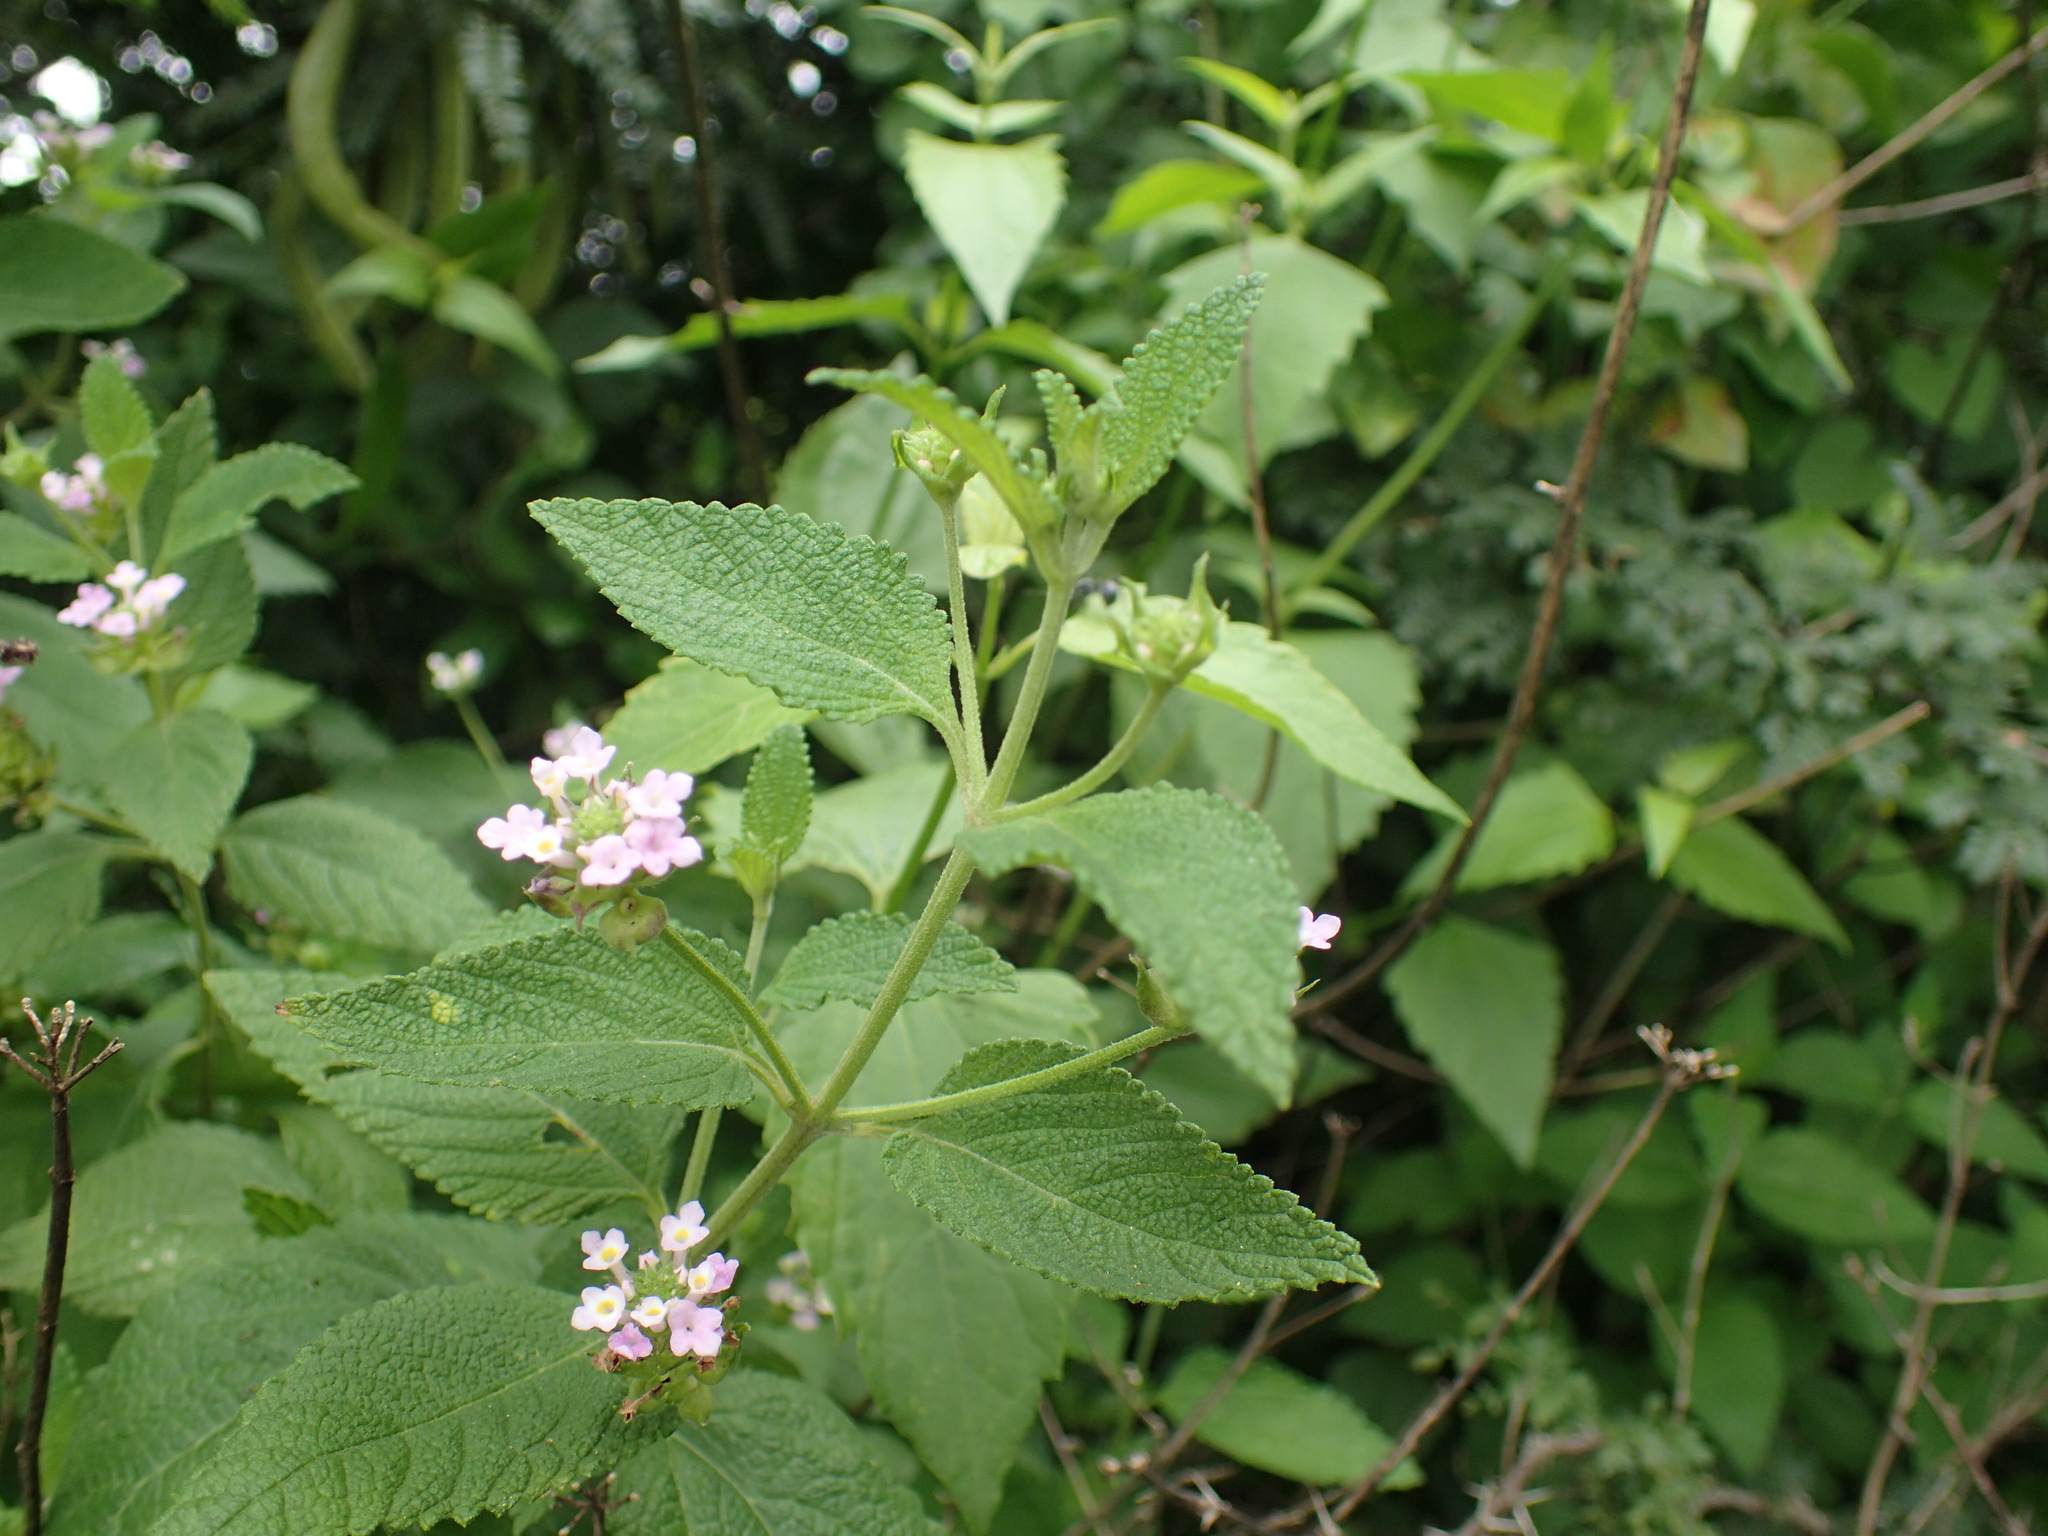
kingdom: Plantae
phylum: Tracheophyta
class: Magnoliopsida
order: Lamiales
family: Verbenaceae
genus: Lantana
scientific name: Lantana rugosa
